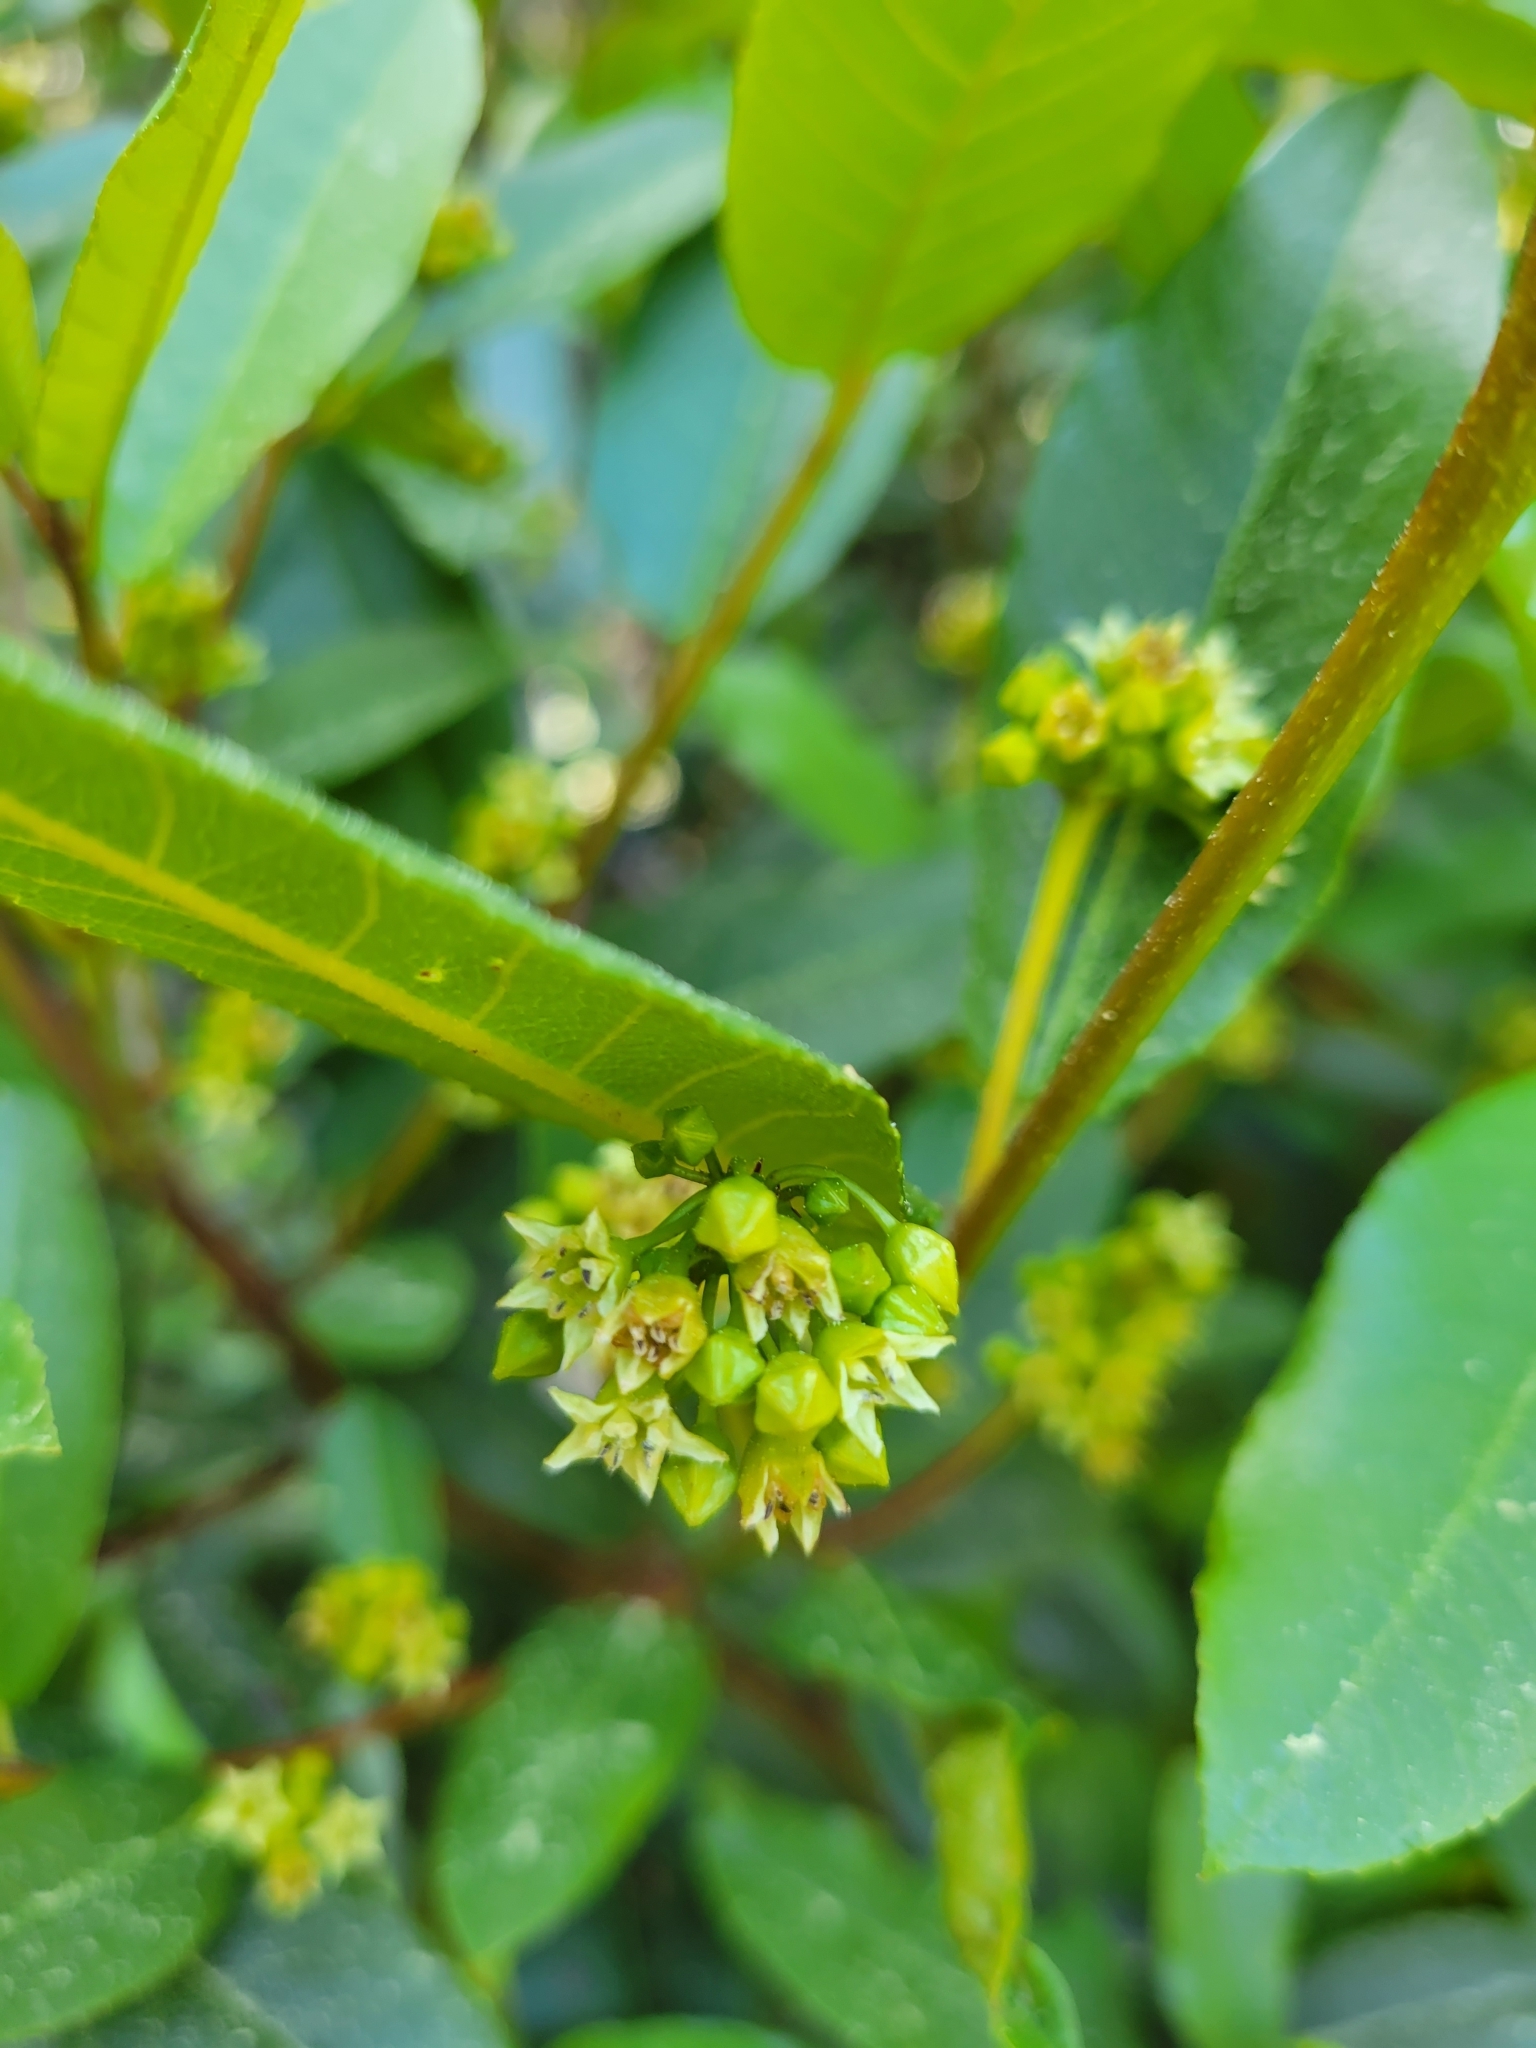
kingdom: Plantae
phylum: Tracheophyta
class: Magnoliopsida
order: Rosales
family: Rhamnaceae
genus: Frangula
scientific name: Frangula californica
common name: California buckthorn
